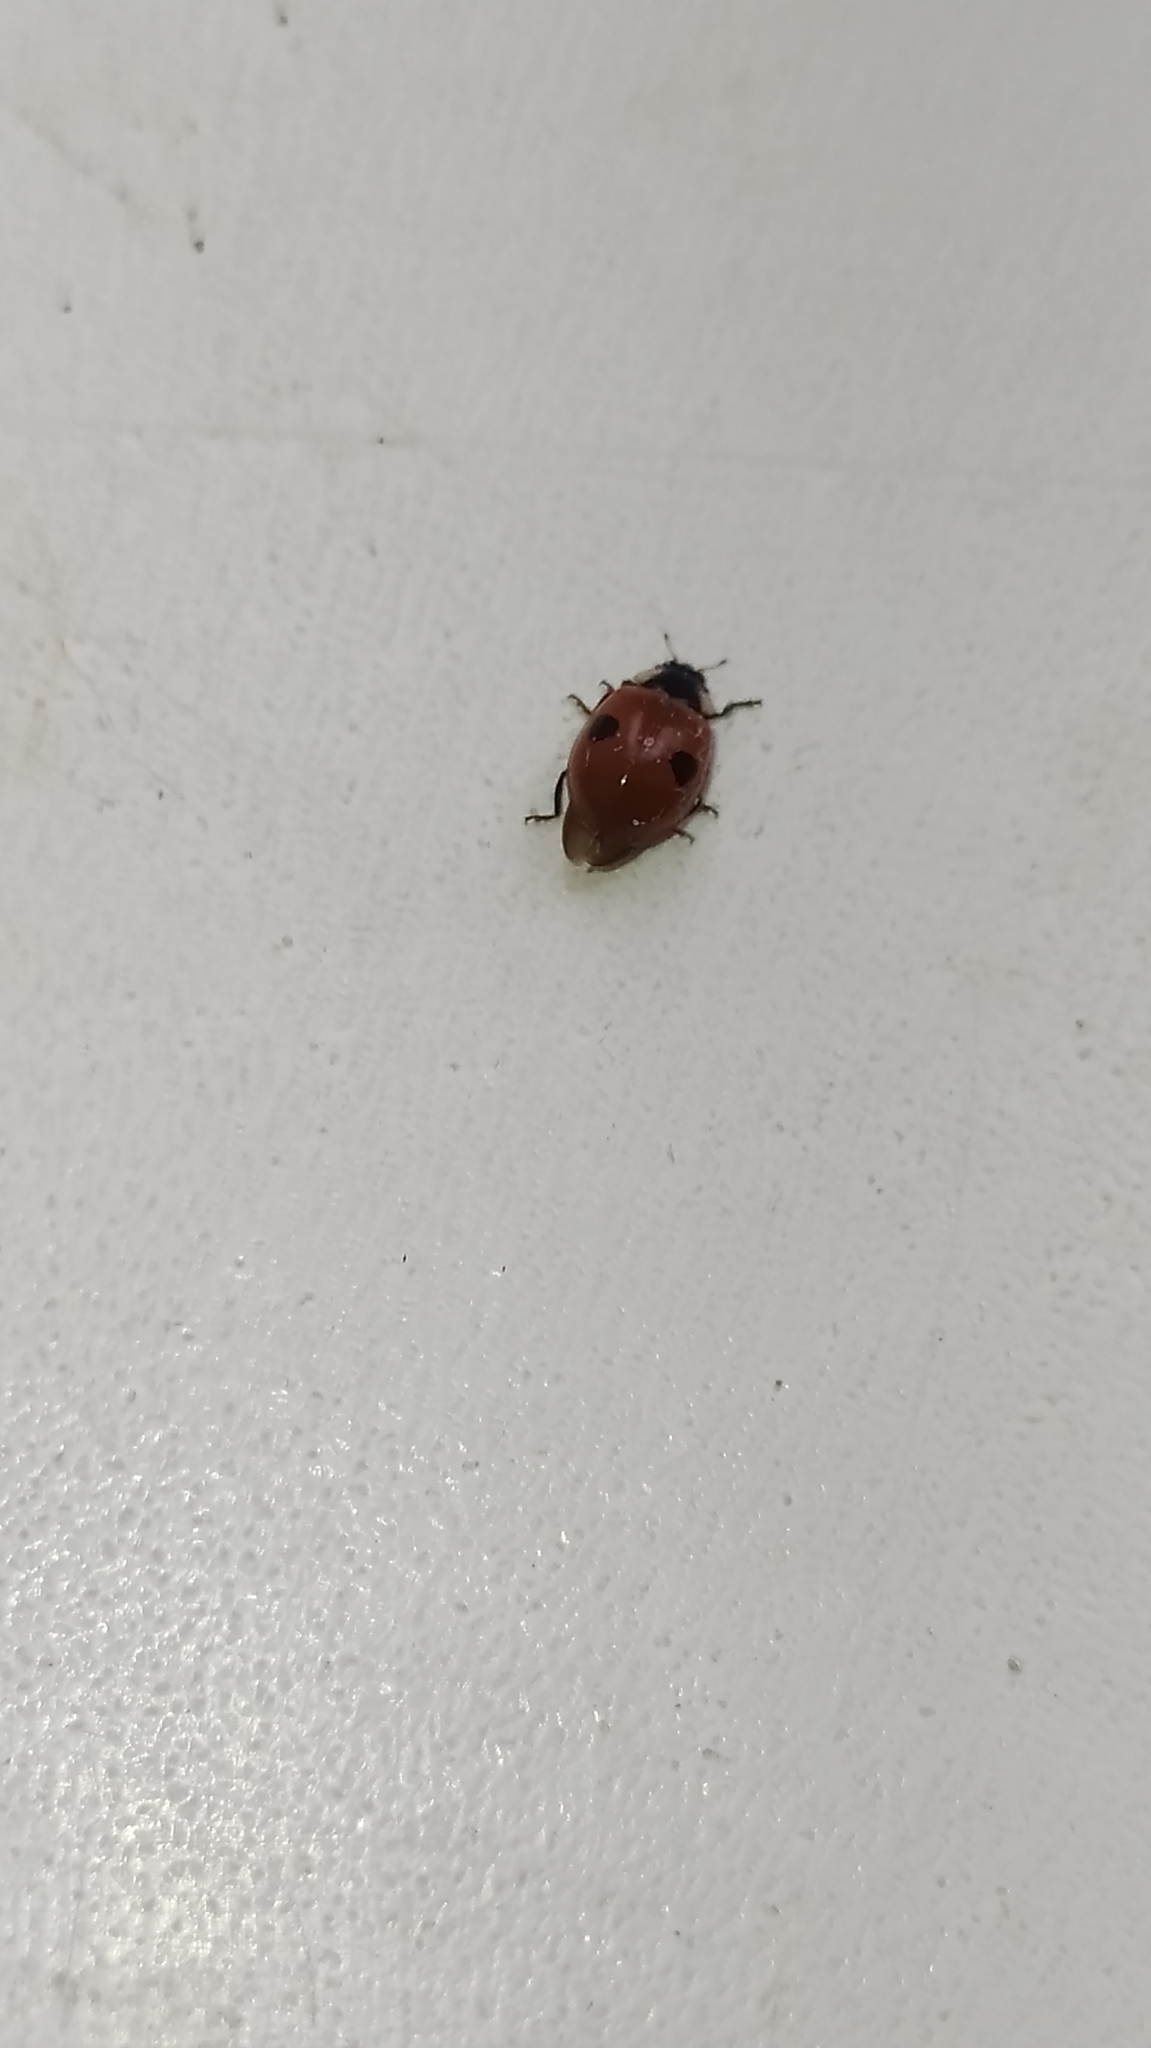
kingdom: Animalia
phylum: Arthropoda
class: Insecta
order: Coleoptera
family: Coccinellidae
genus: Adalia
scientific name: Adalia bipunctata
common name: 2-spot ladybird
